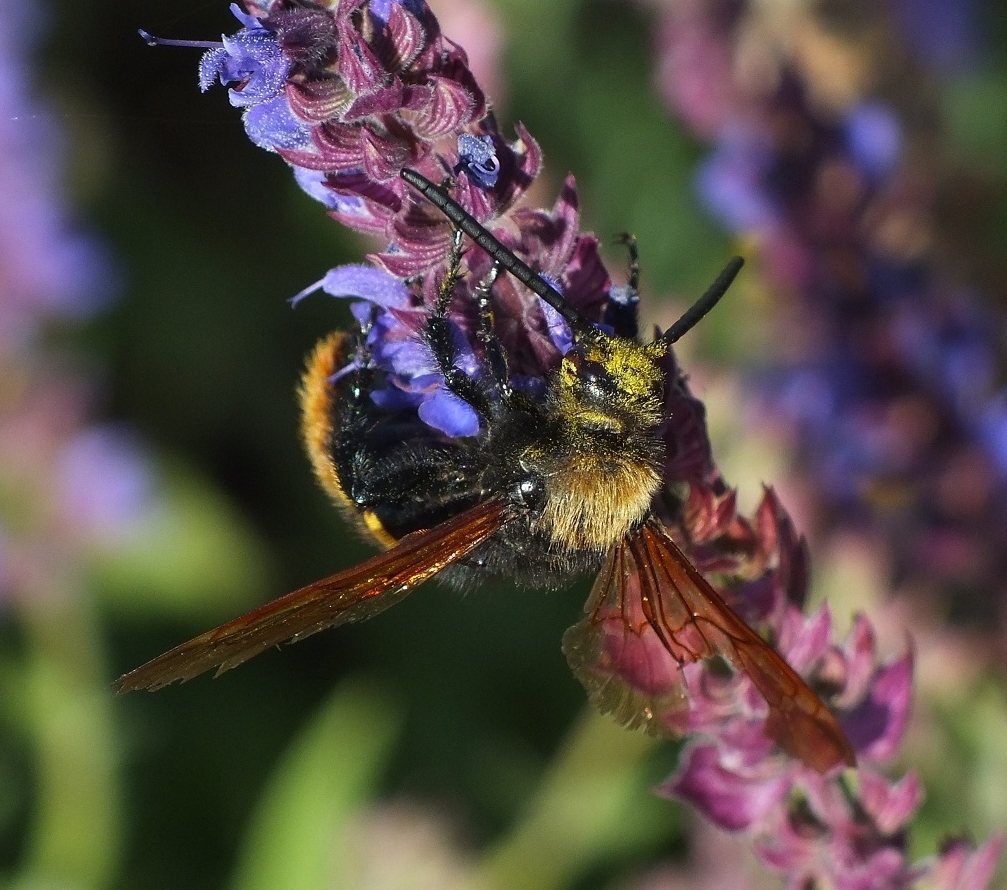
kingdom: Animalia
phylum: Arthropoda
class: Insecta
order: Hymenoptera
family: Scoliidae
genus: Megascolia
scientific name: Megascolia maculata
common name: Mammoth wasp
